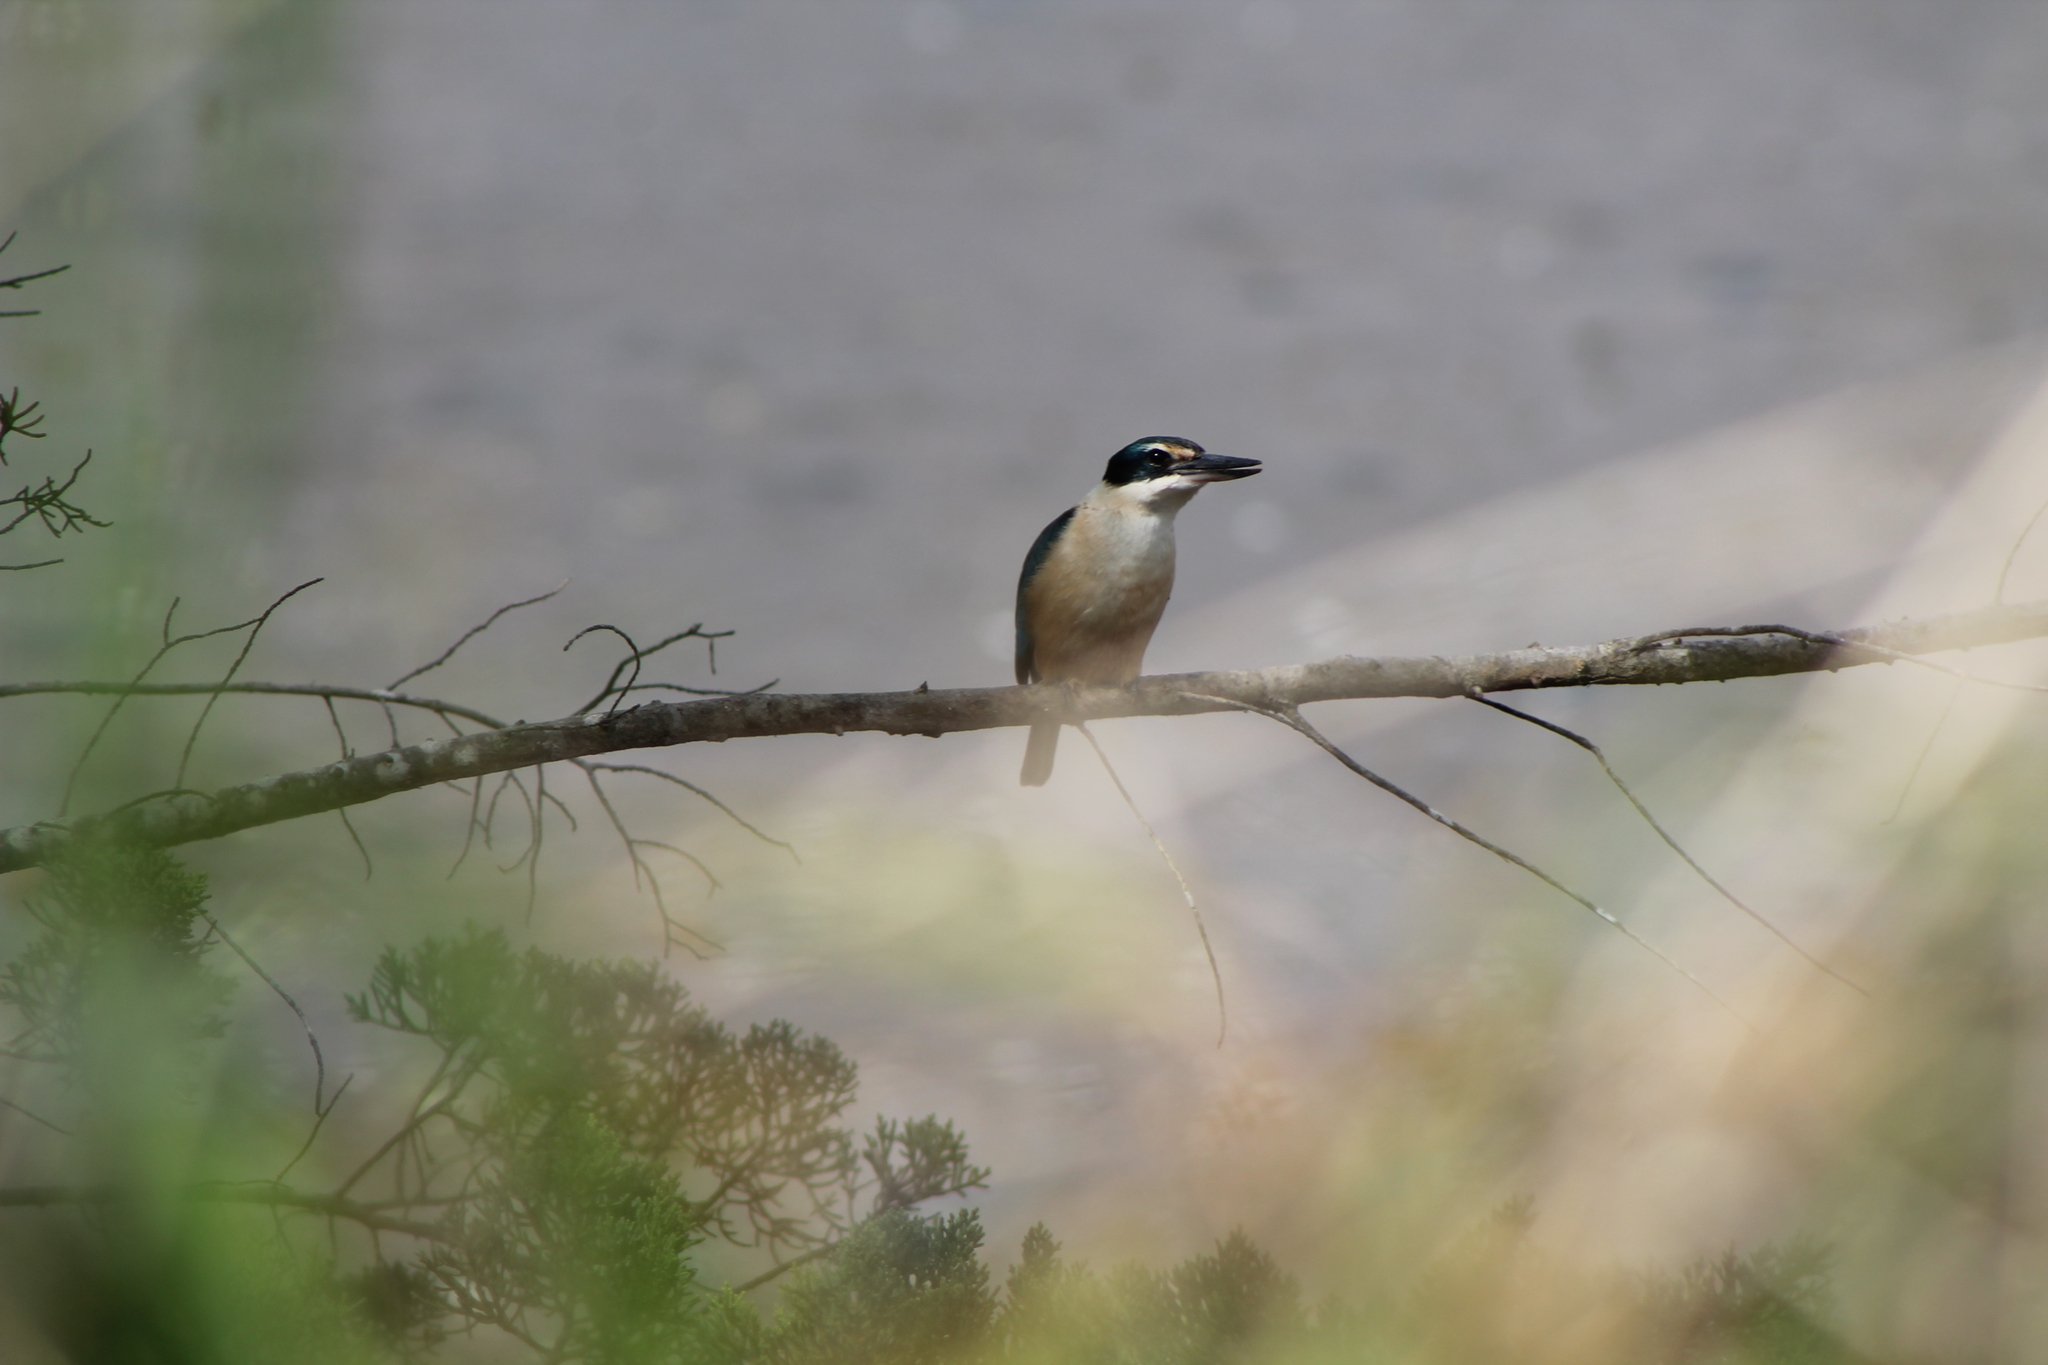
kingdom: Animalia
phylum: Chordata
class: Aves
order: Coraciiformes
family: Alcedinidae
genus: Todiramphus
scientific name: Todiramphus sanctus
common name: Sacred kingfisher
